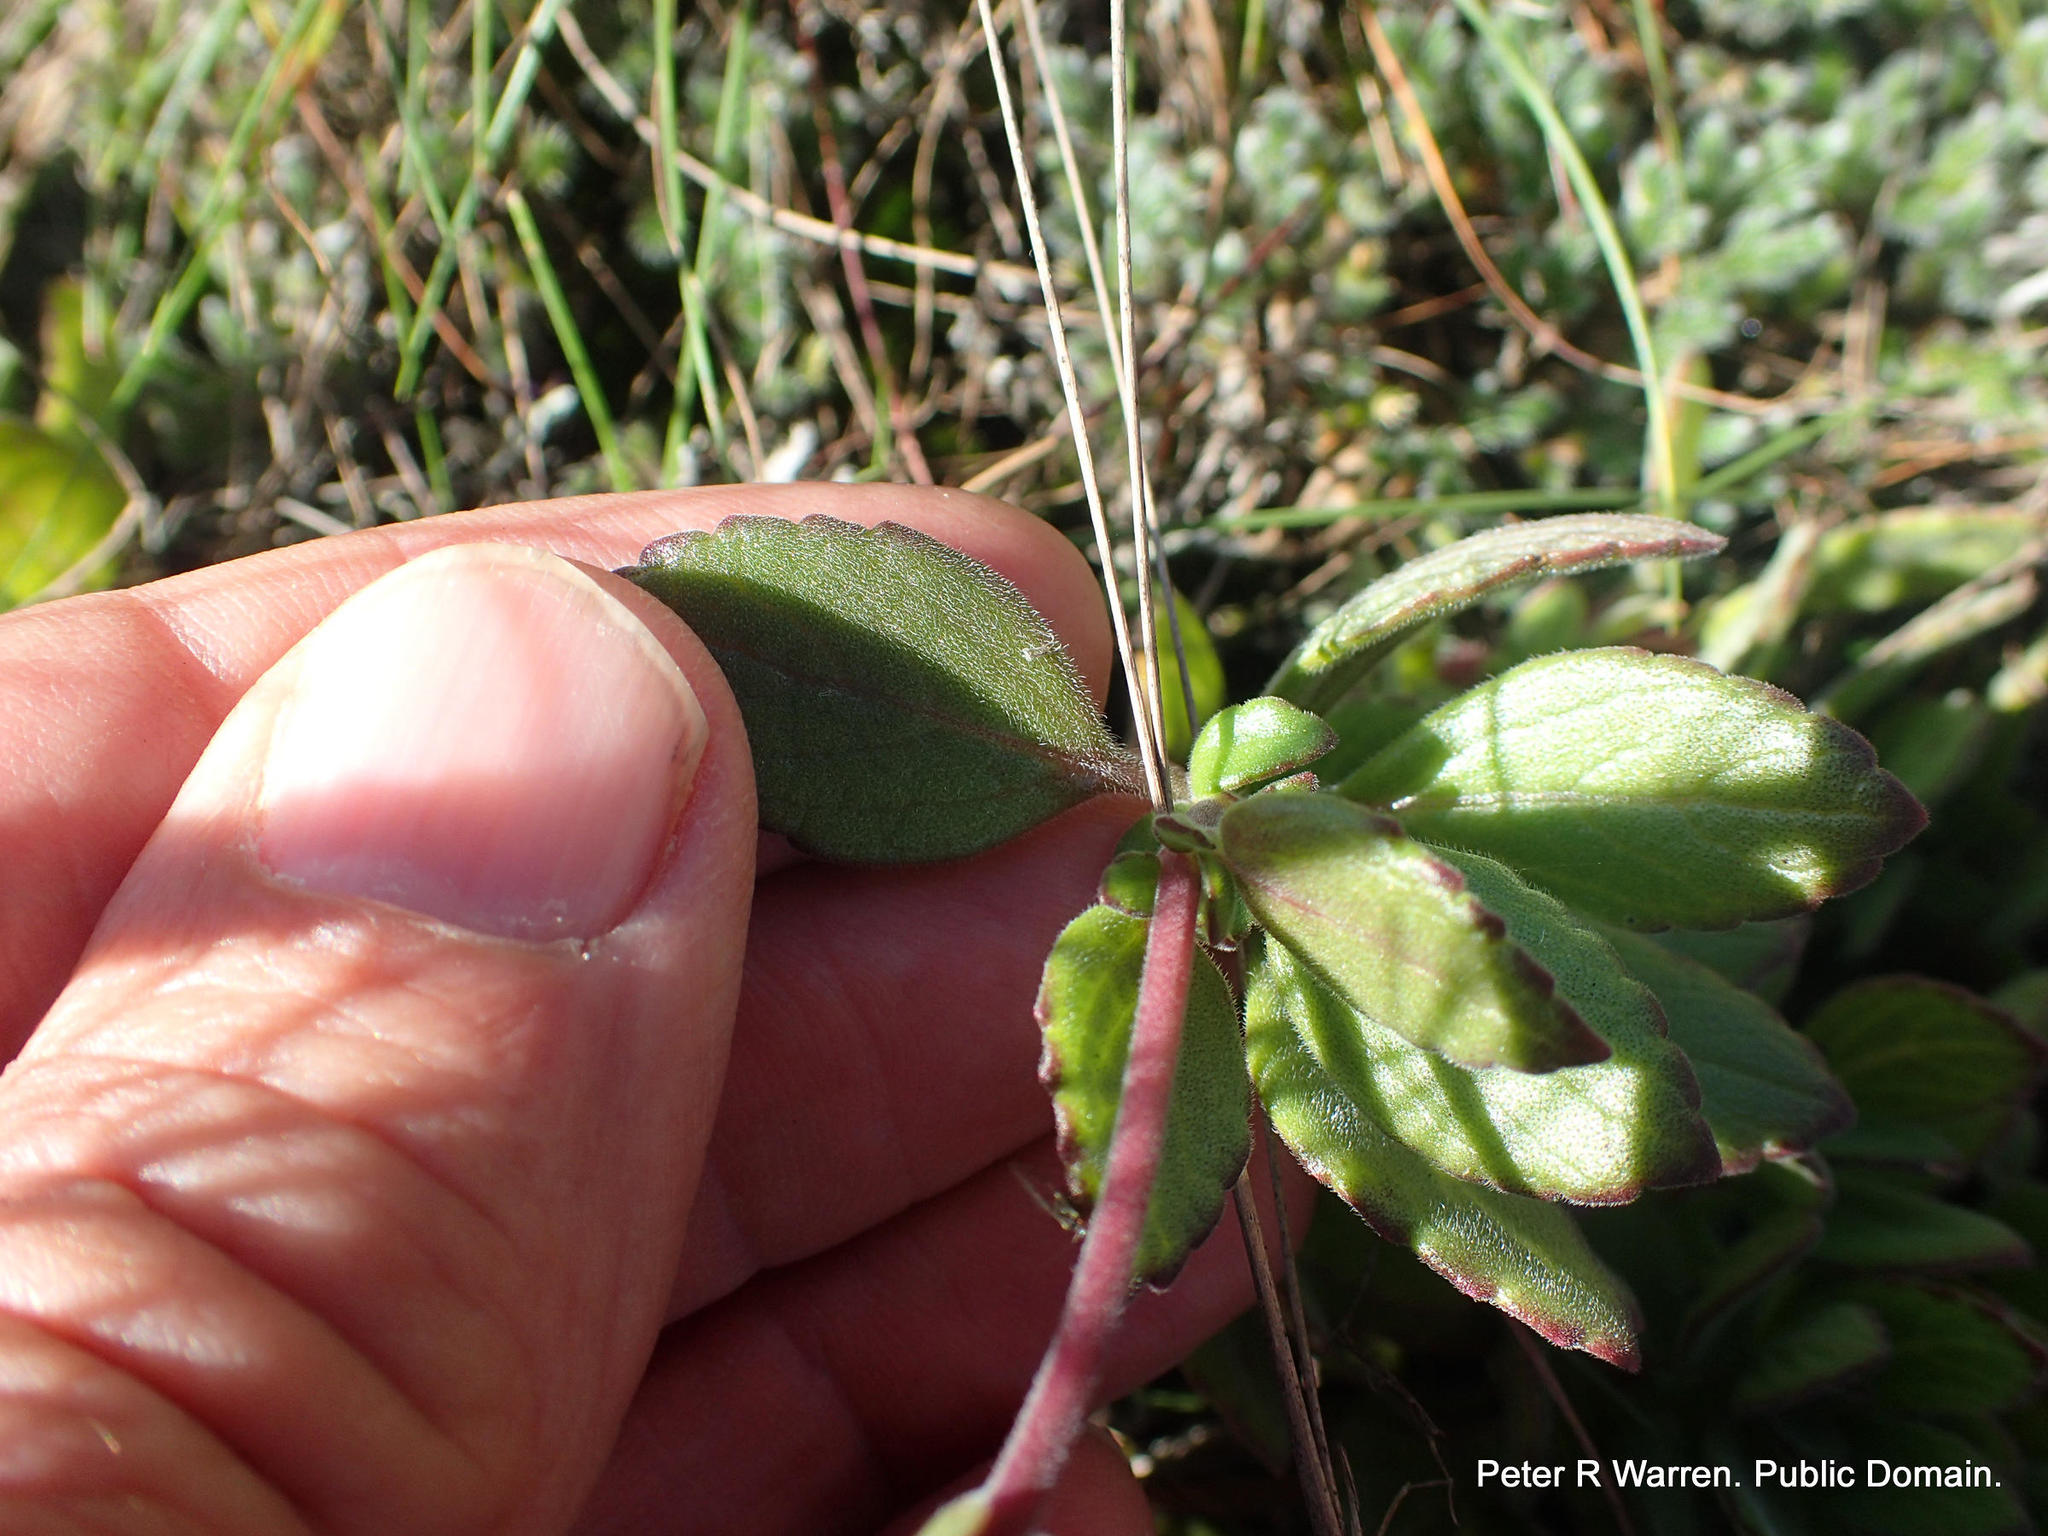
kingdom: Plantae
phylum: Tracheophyta
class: Magnoliopsida
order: Lamiales
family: Lamiaceae
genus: Coleus
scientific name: Coleus hadiensis
